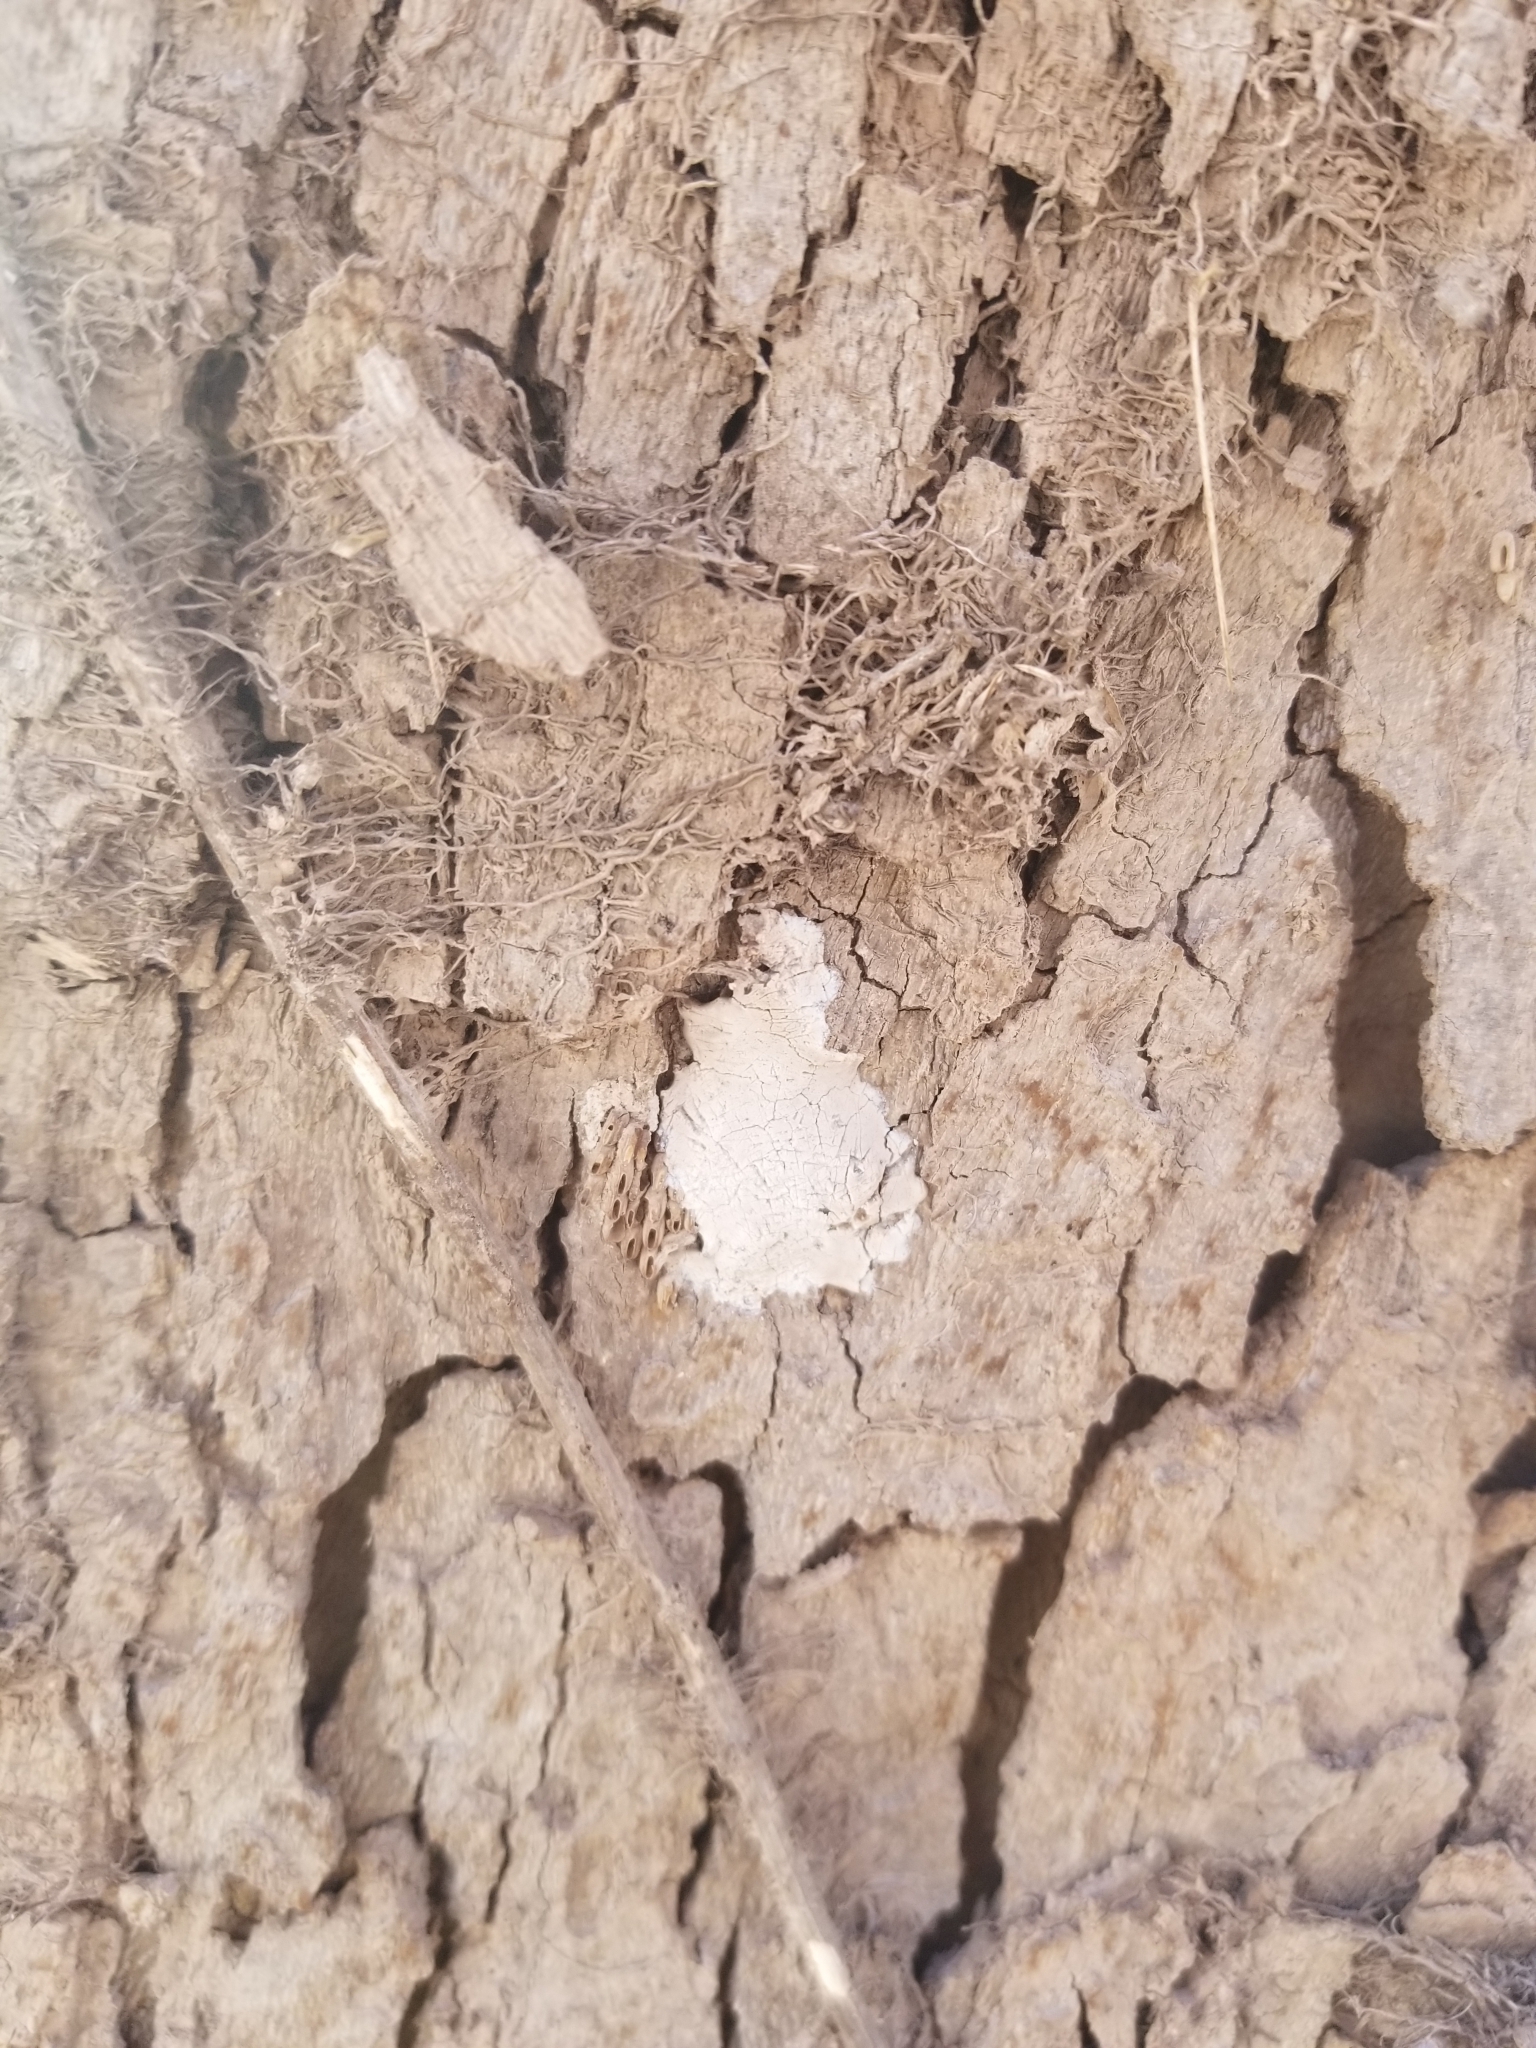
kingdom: Animalia
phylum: Arthropoda
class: Insecta
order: Hemiptera
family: Fulgoridae
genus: Lycorma
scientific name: Lycorma delicatula
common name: Spotted lanternfly
